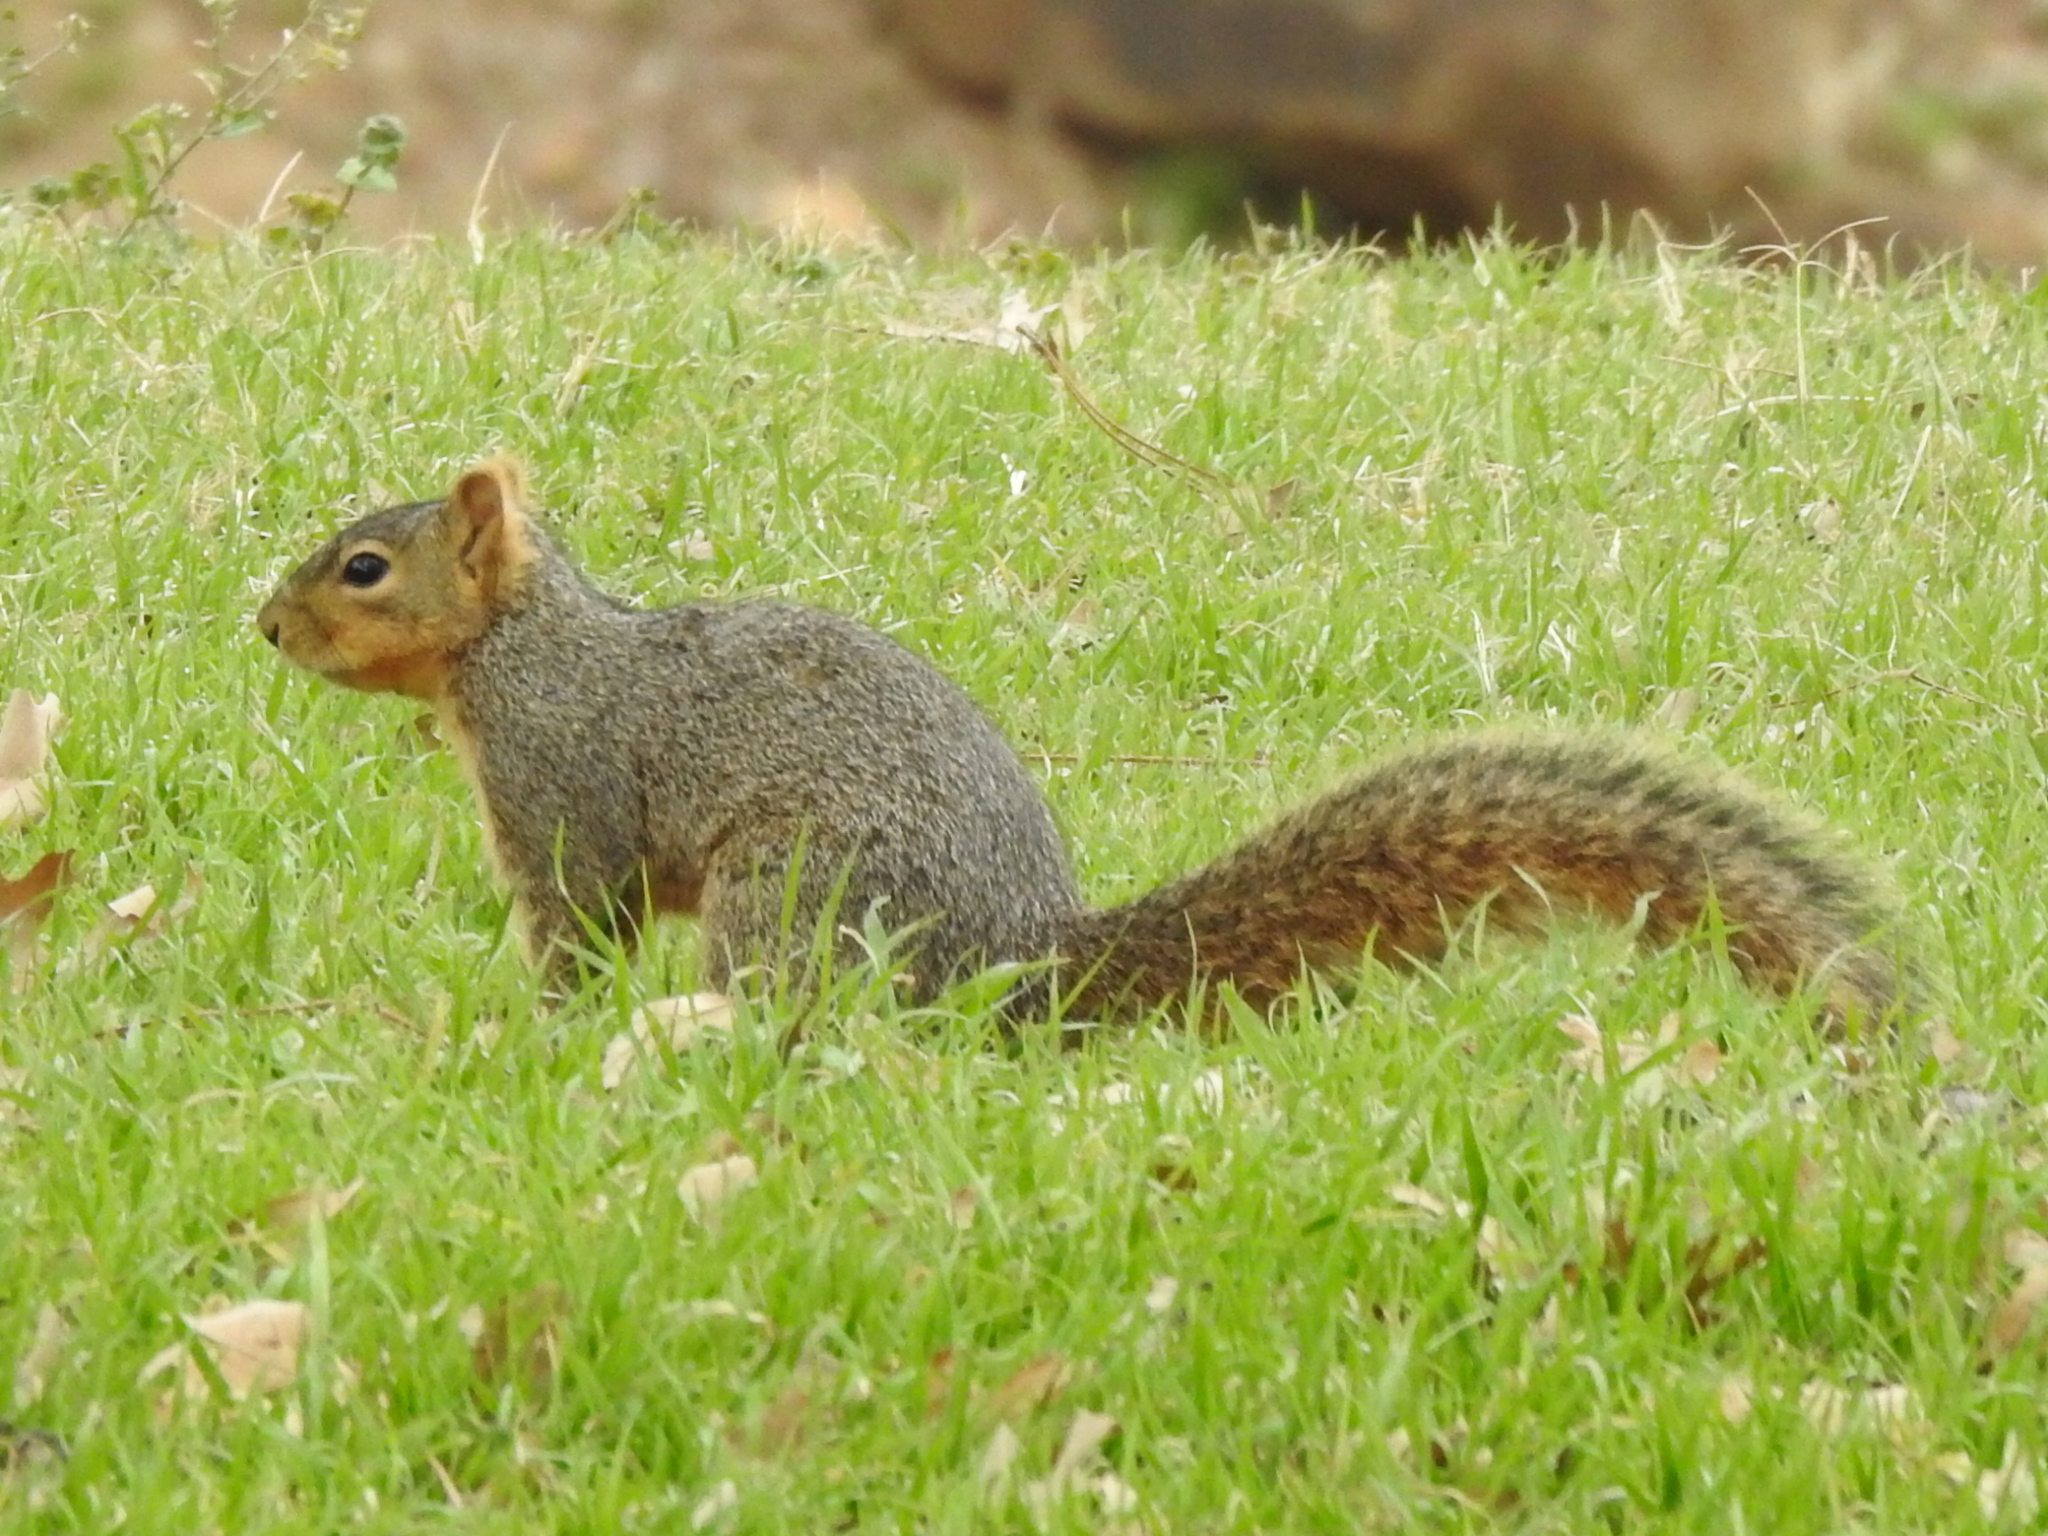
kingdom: Animalia
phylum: Chordata
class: Mammalia
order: Rodentia
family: Sciuridae
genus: Sciurus
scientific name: Sciurus niger
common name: Fox squirrel
